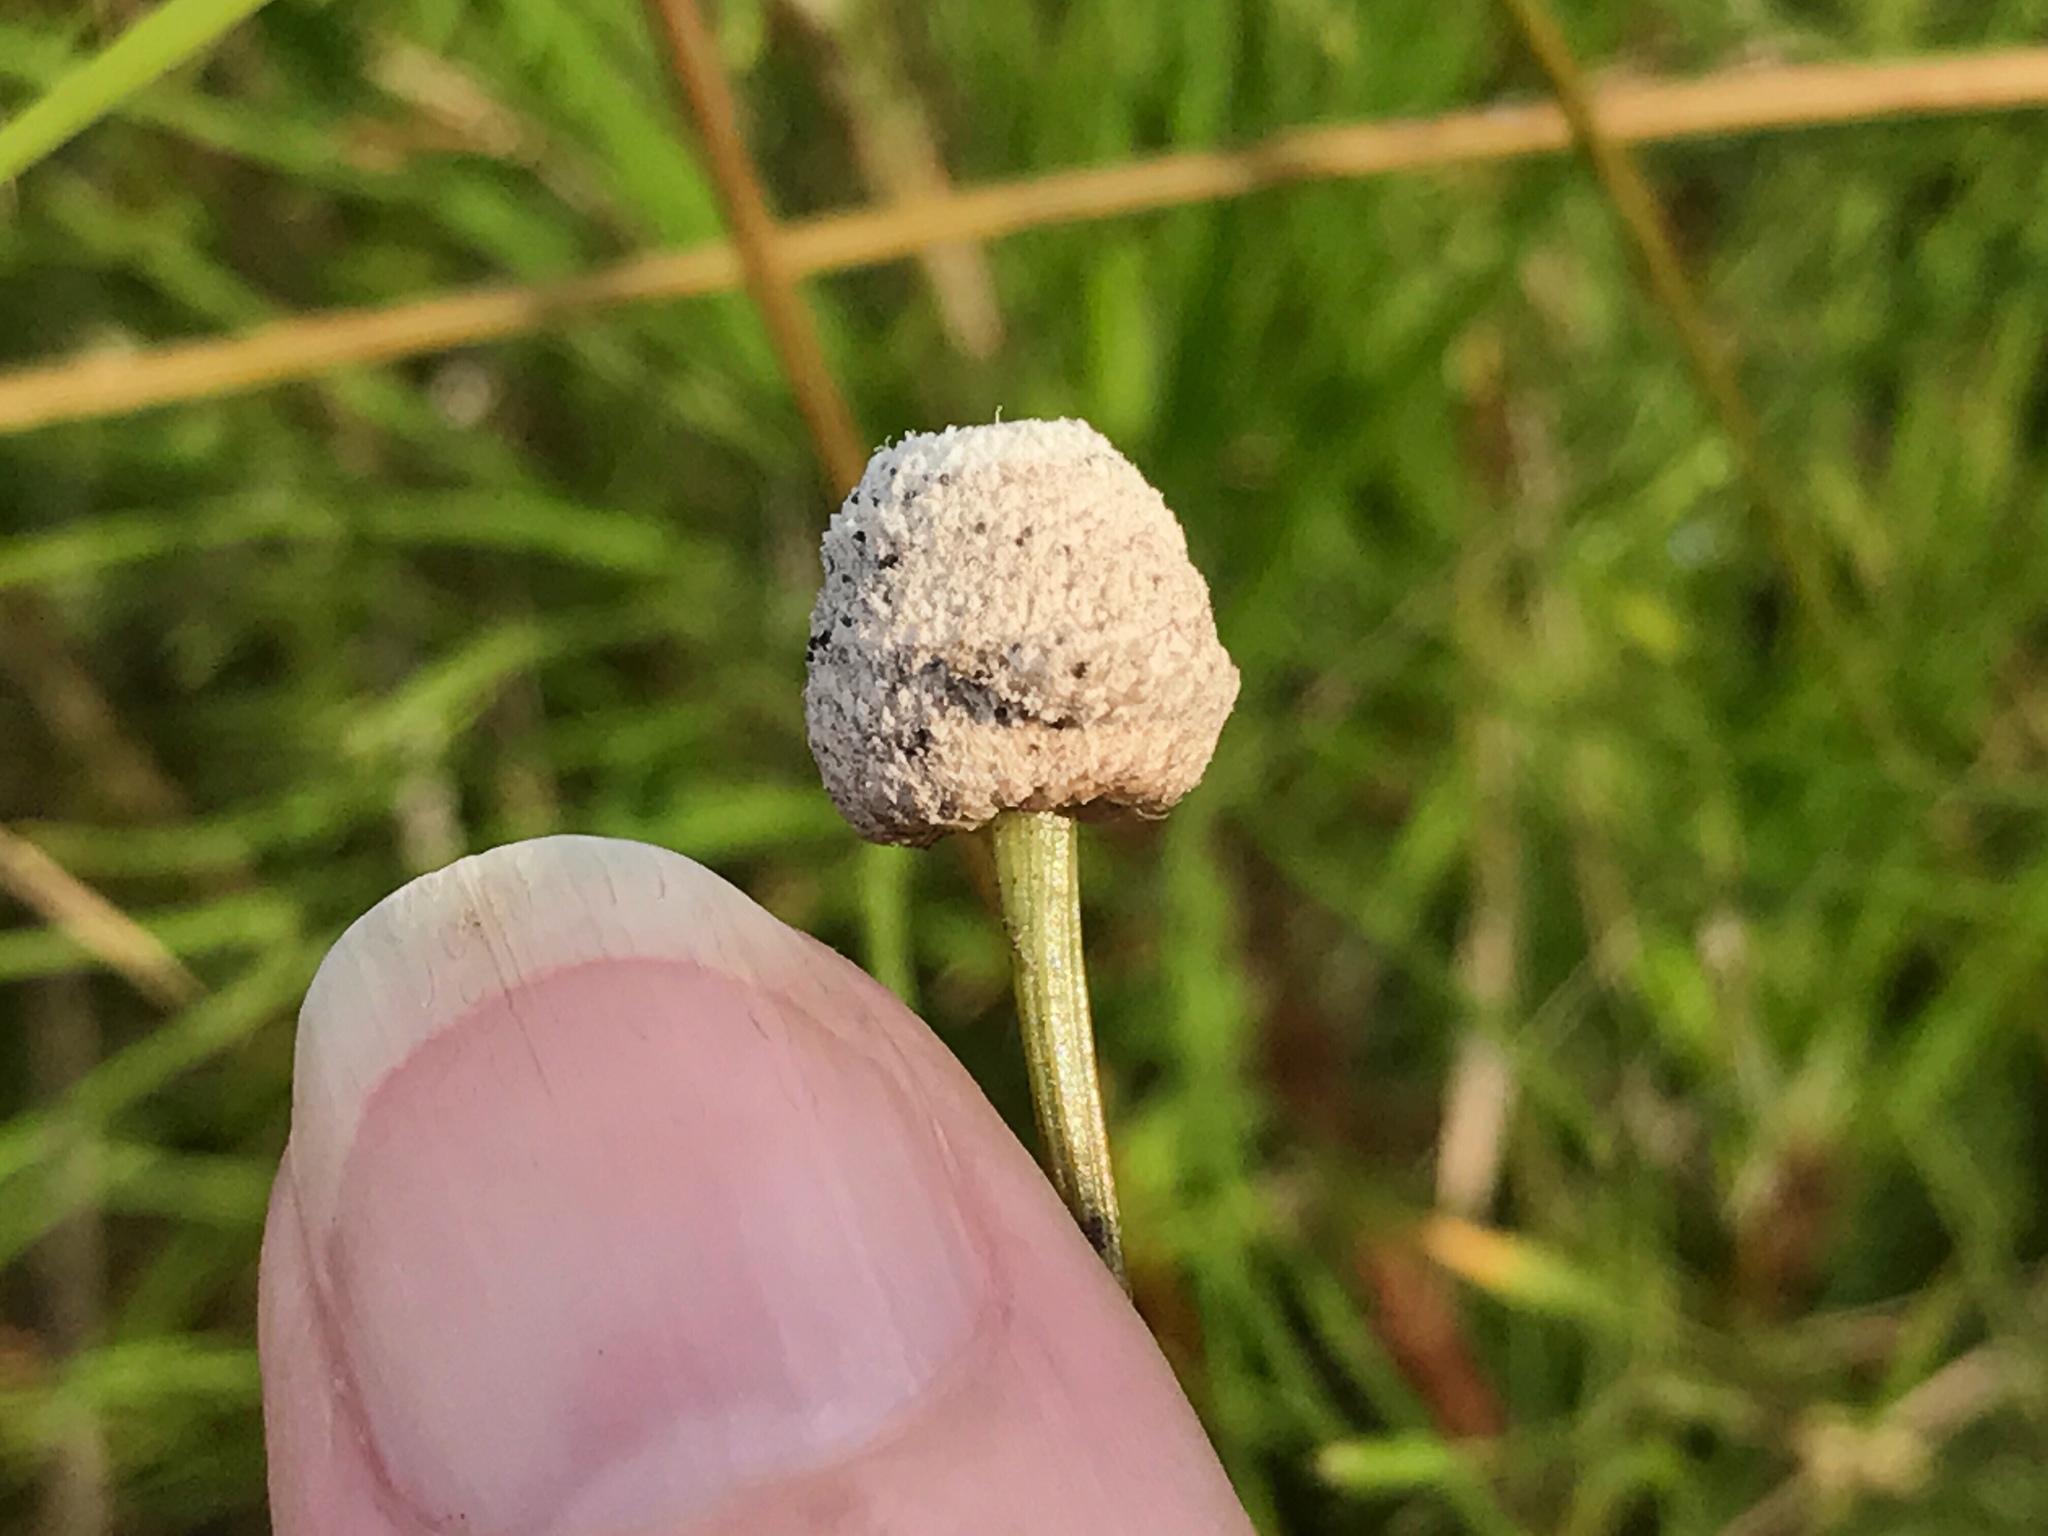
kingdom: Plantae
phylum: Tracheophyta
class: Liliopsida
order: Poales
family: Eriocaulaceae
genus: Eriocaulon
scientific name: Eriocaulon decangulare
